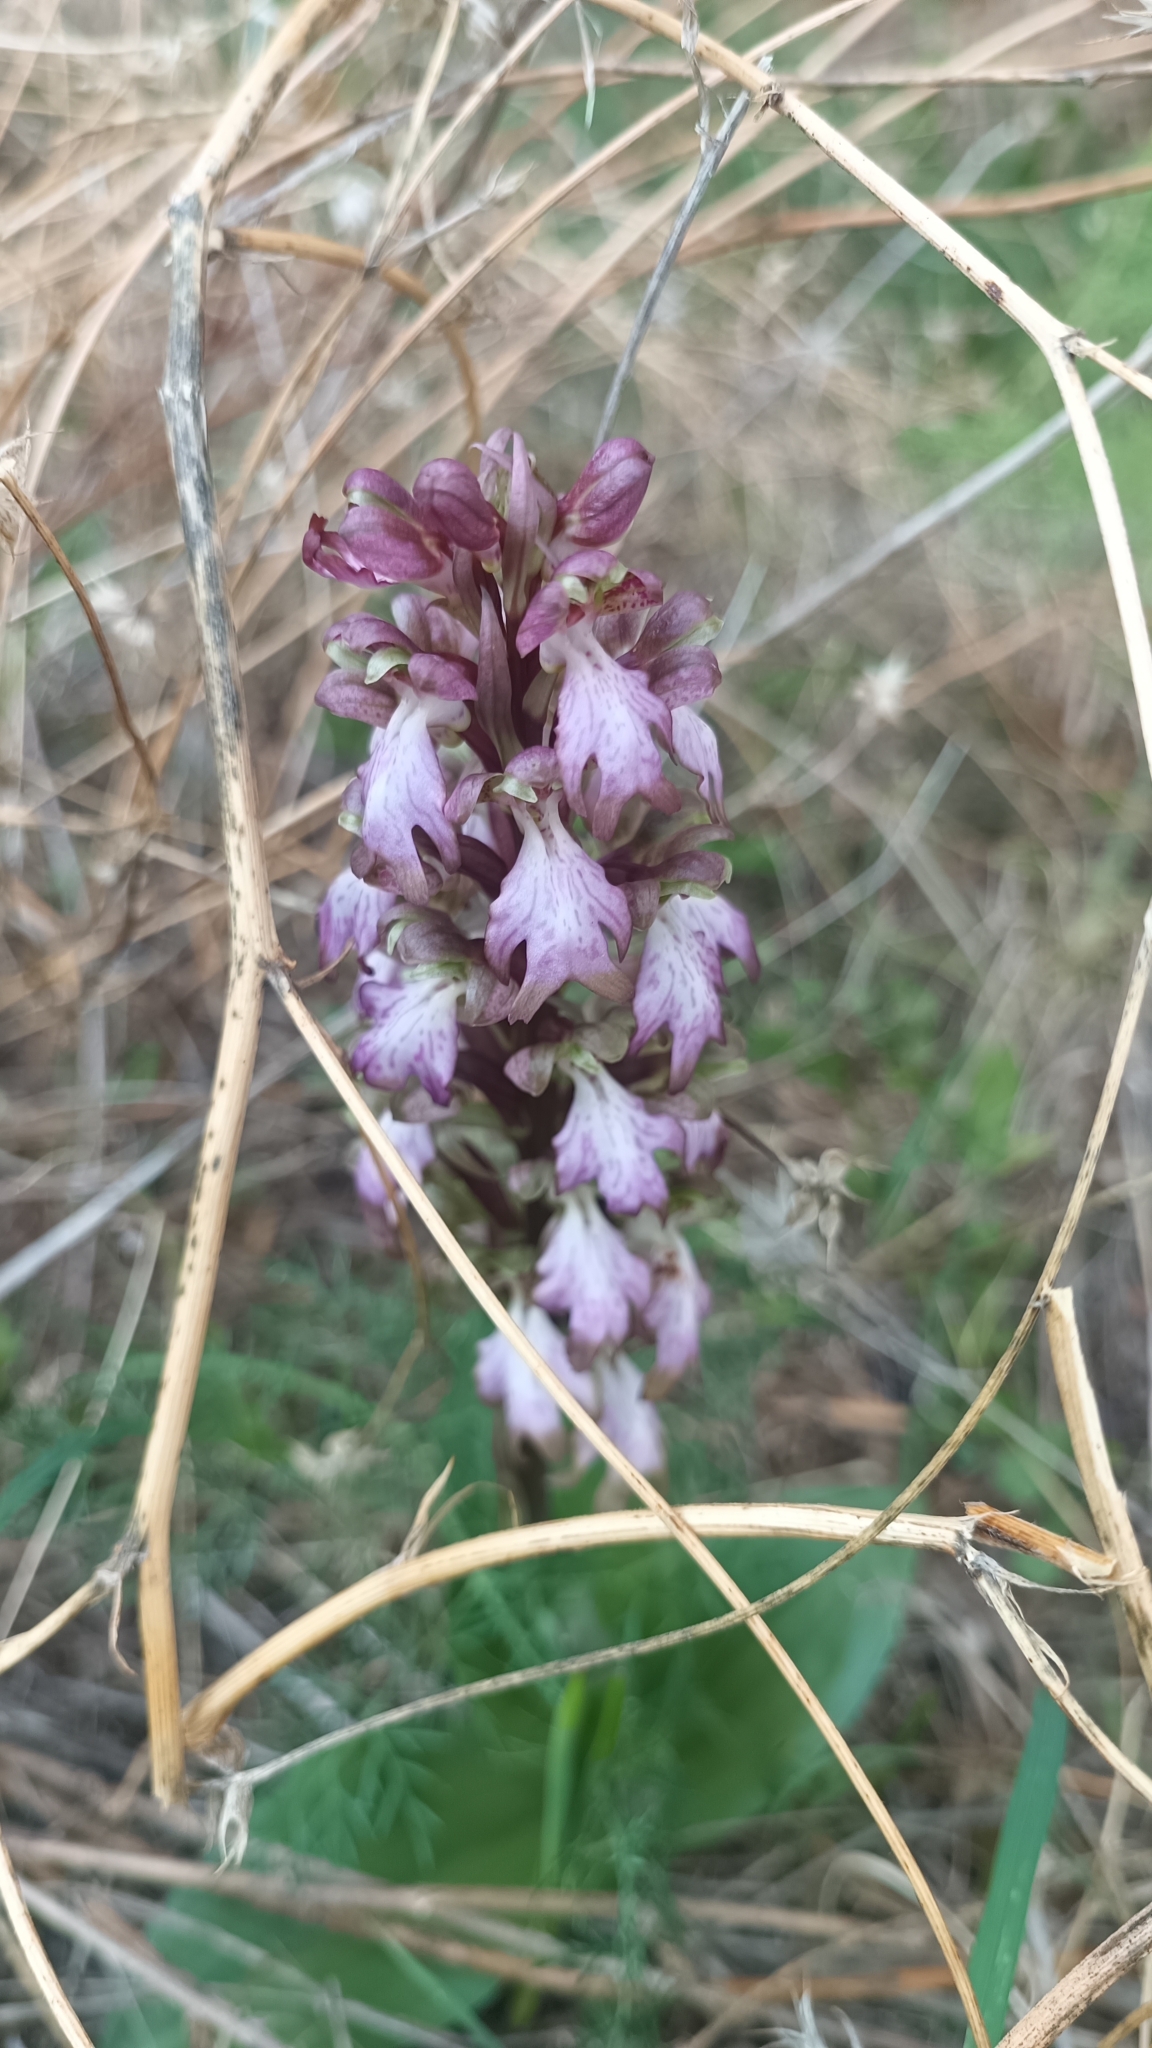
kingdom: Plantae
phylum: Tracheophyta
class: Liliopsida
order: Asparagales
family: Orchidaceae
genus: Himantoglossum
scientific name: Himantoglossum robertianum
